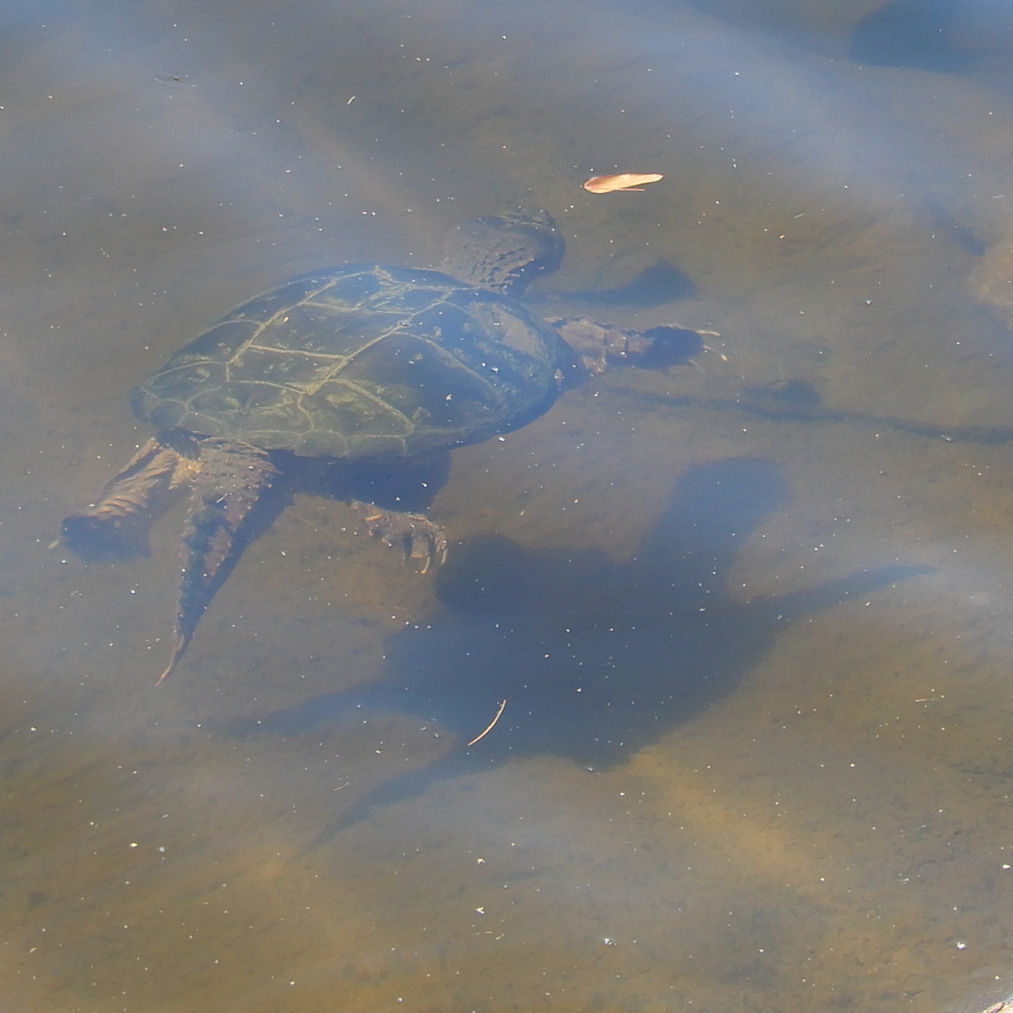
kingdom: Animalia
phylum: Chordata
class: Testudines
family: Chelydridae
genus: Chelydra
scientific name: Chelydra serpentina
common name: Common snapping turtle
